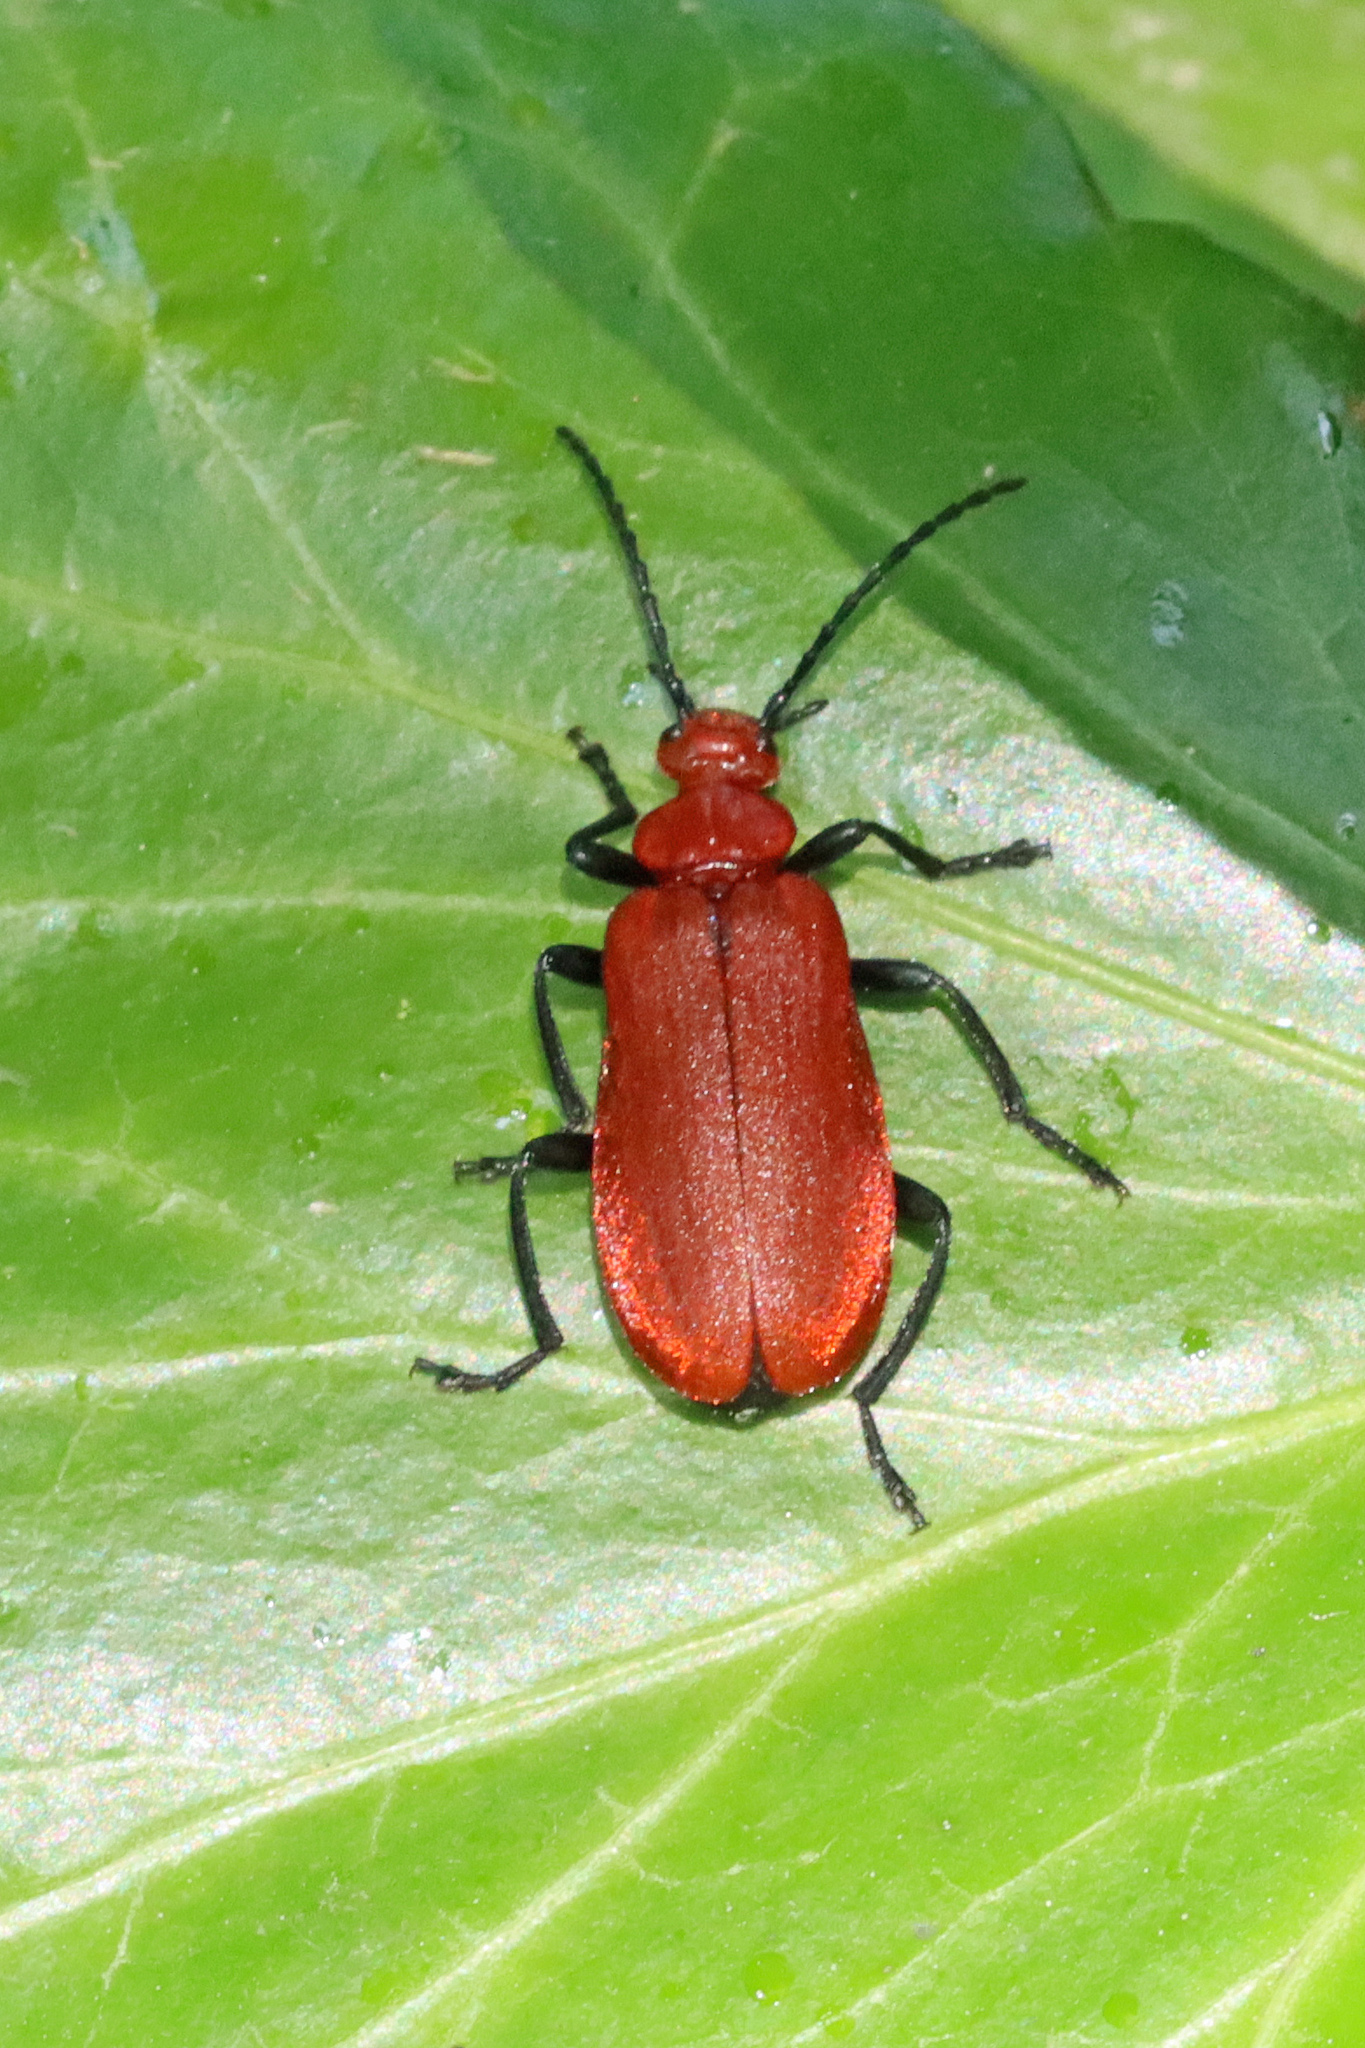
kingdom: Animalia
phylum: Arthropoda
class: Insecta
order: Coleoptera
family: Pyrochroidae
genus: Pyrochroa
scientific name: Pyrochroa serraticornis
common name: Red-headed cardinal beetle
